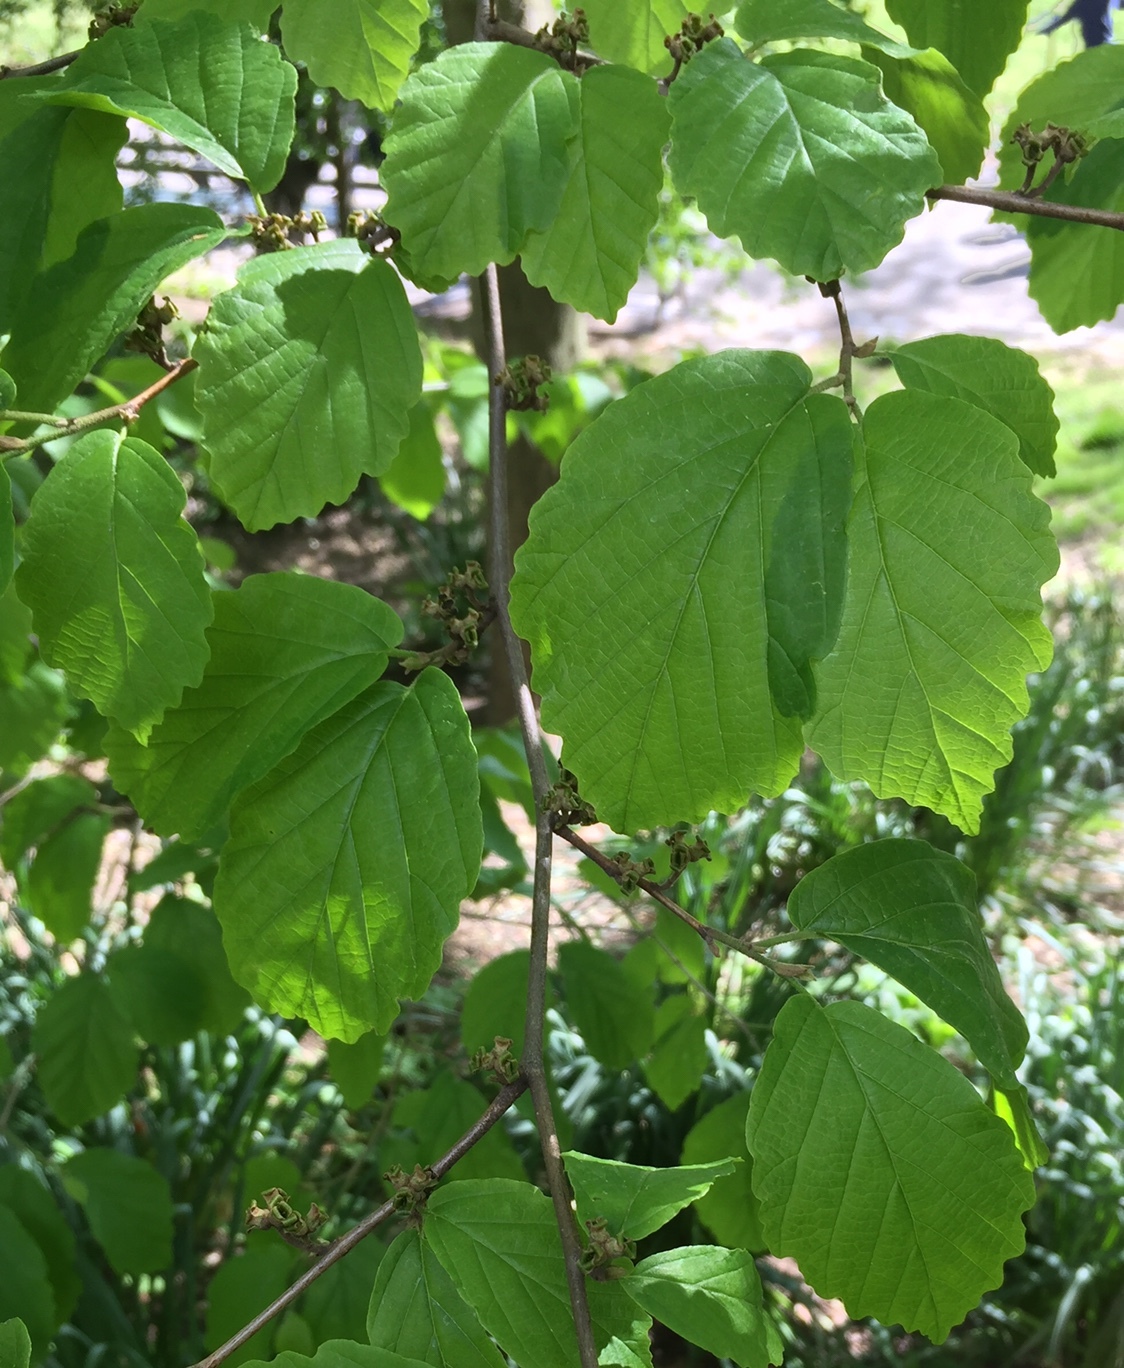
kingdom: Plantae
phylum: Tracheophyta
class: Magnoliopsida
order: Saxifragales
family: Hamamelidaceae
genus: Hamamelis
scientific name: Hamamelis virginiana
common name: Witch-hazel
